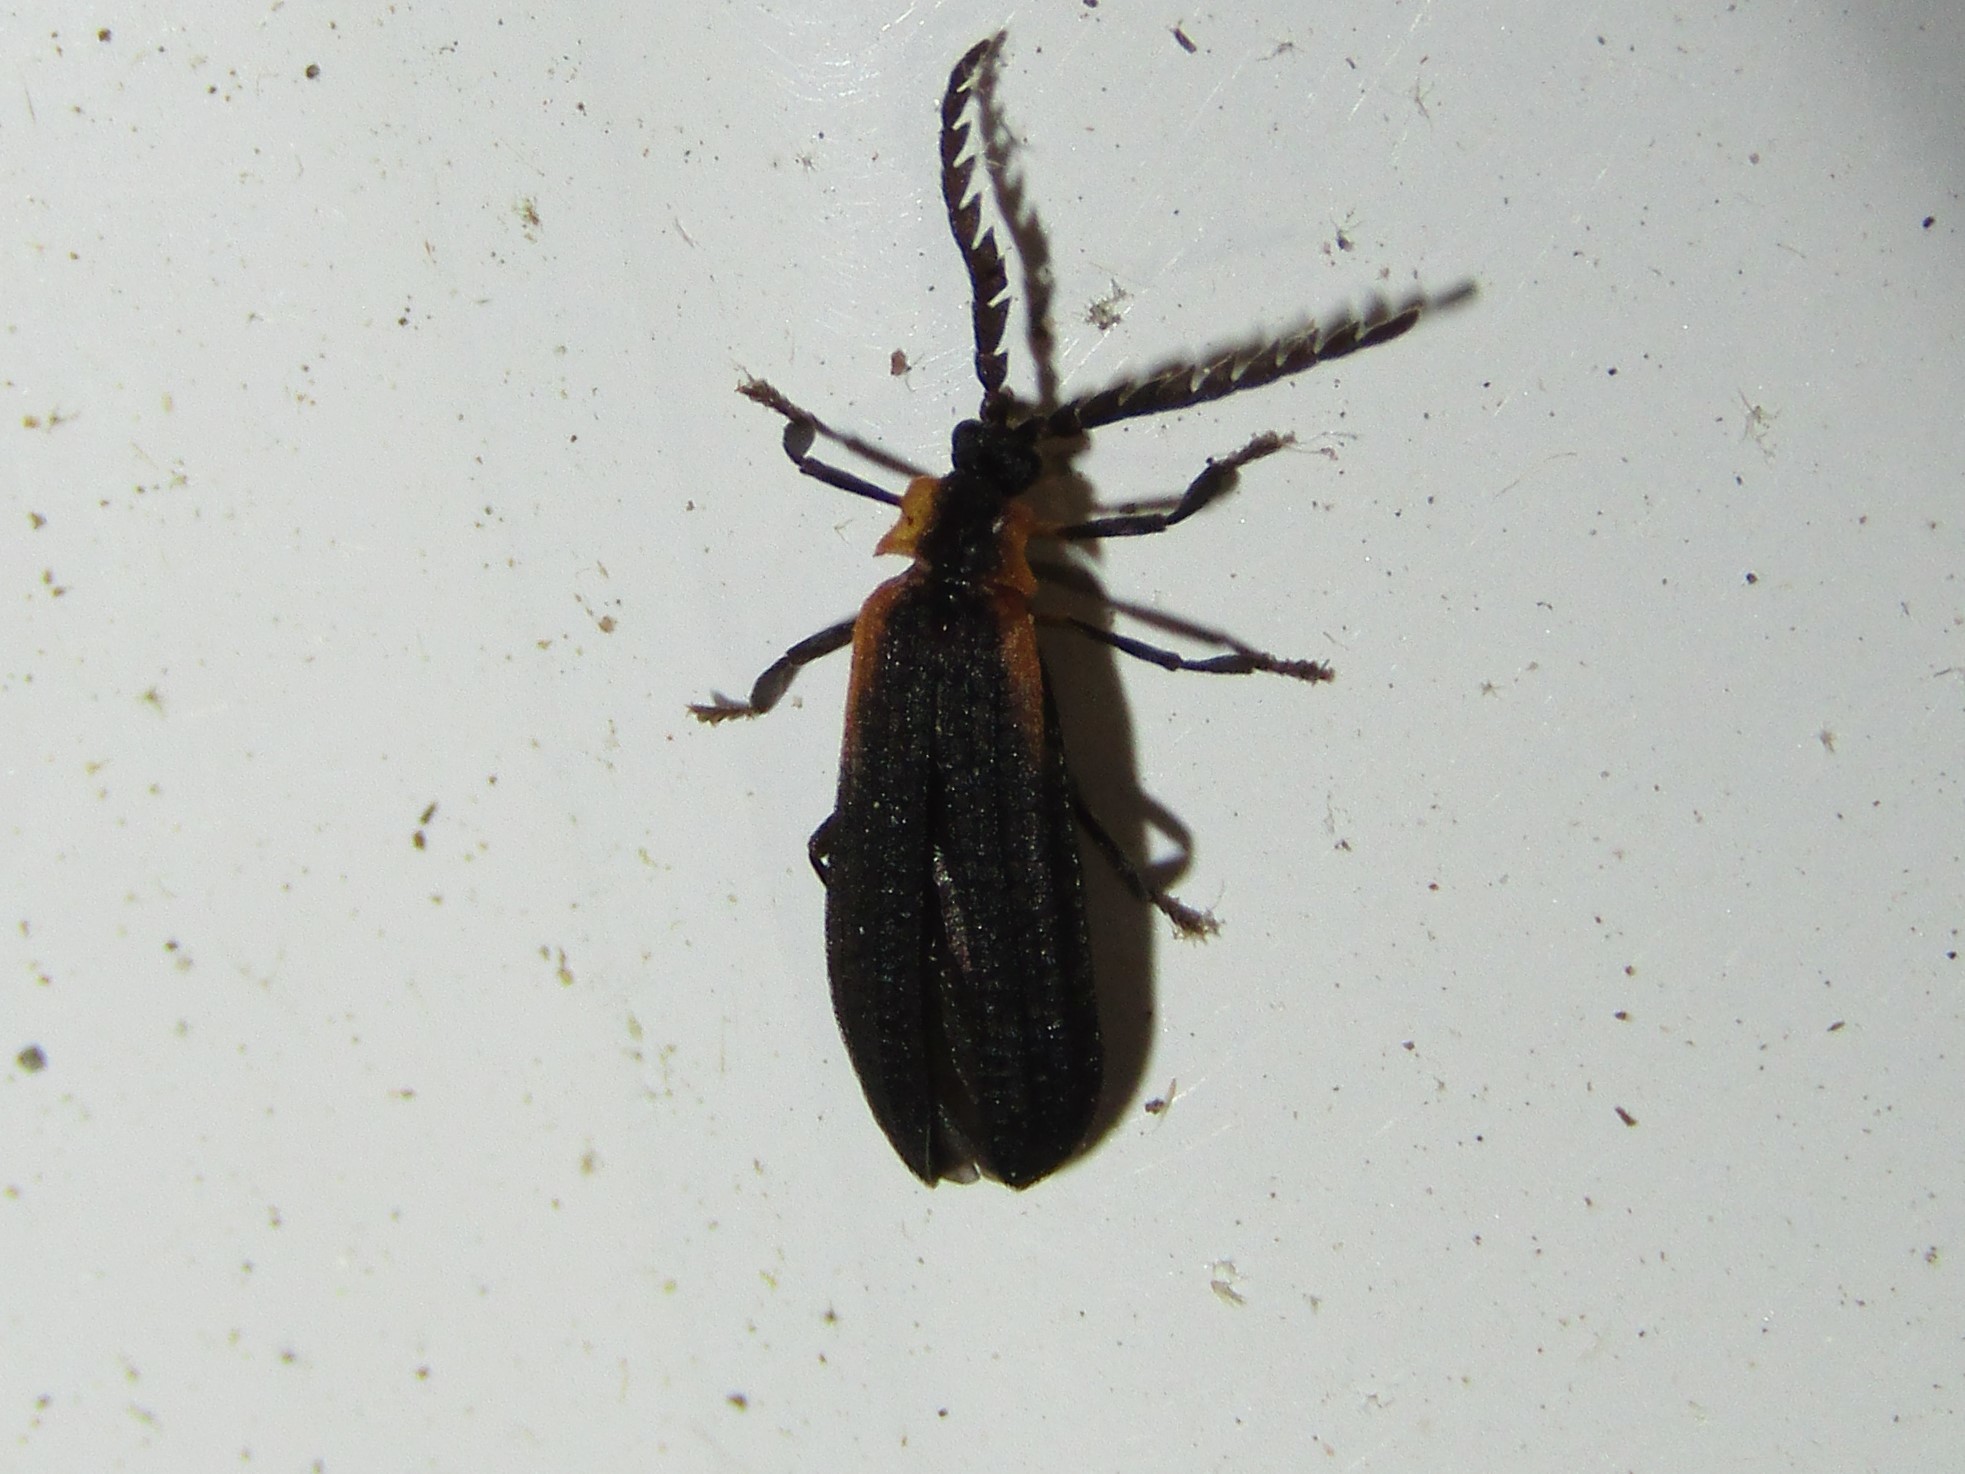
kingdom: Animalia
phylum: Arthropoda
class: Insecta
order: Coleoptera
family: Lycidae
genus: Leptoceletes
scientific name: Leptoceletes basalis
